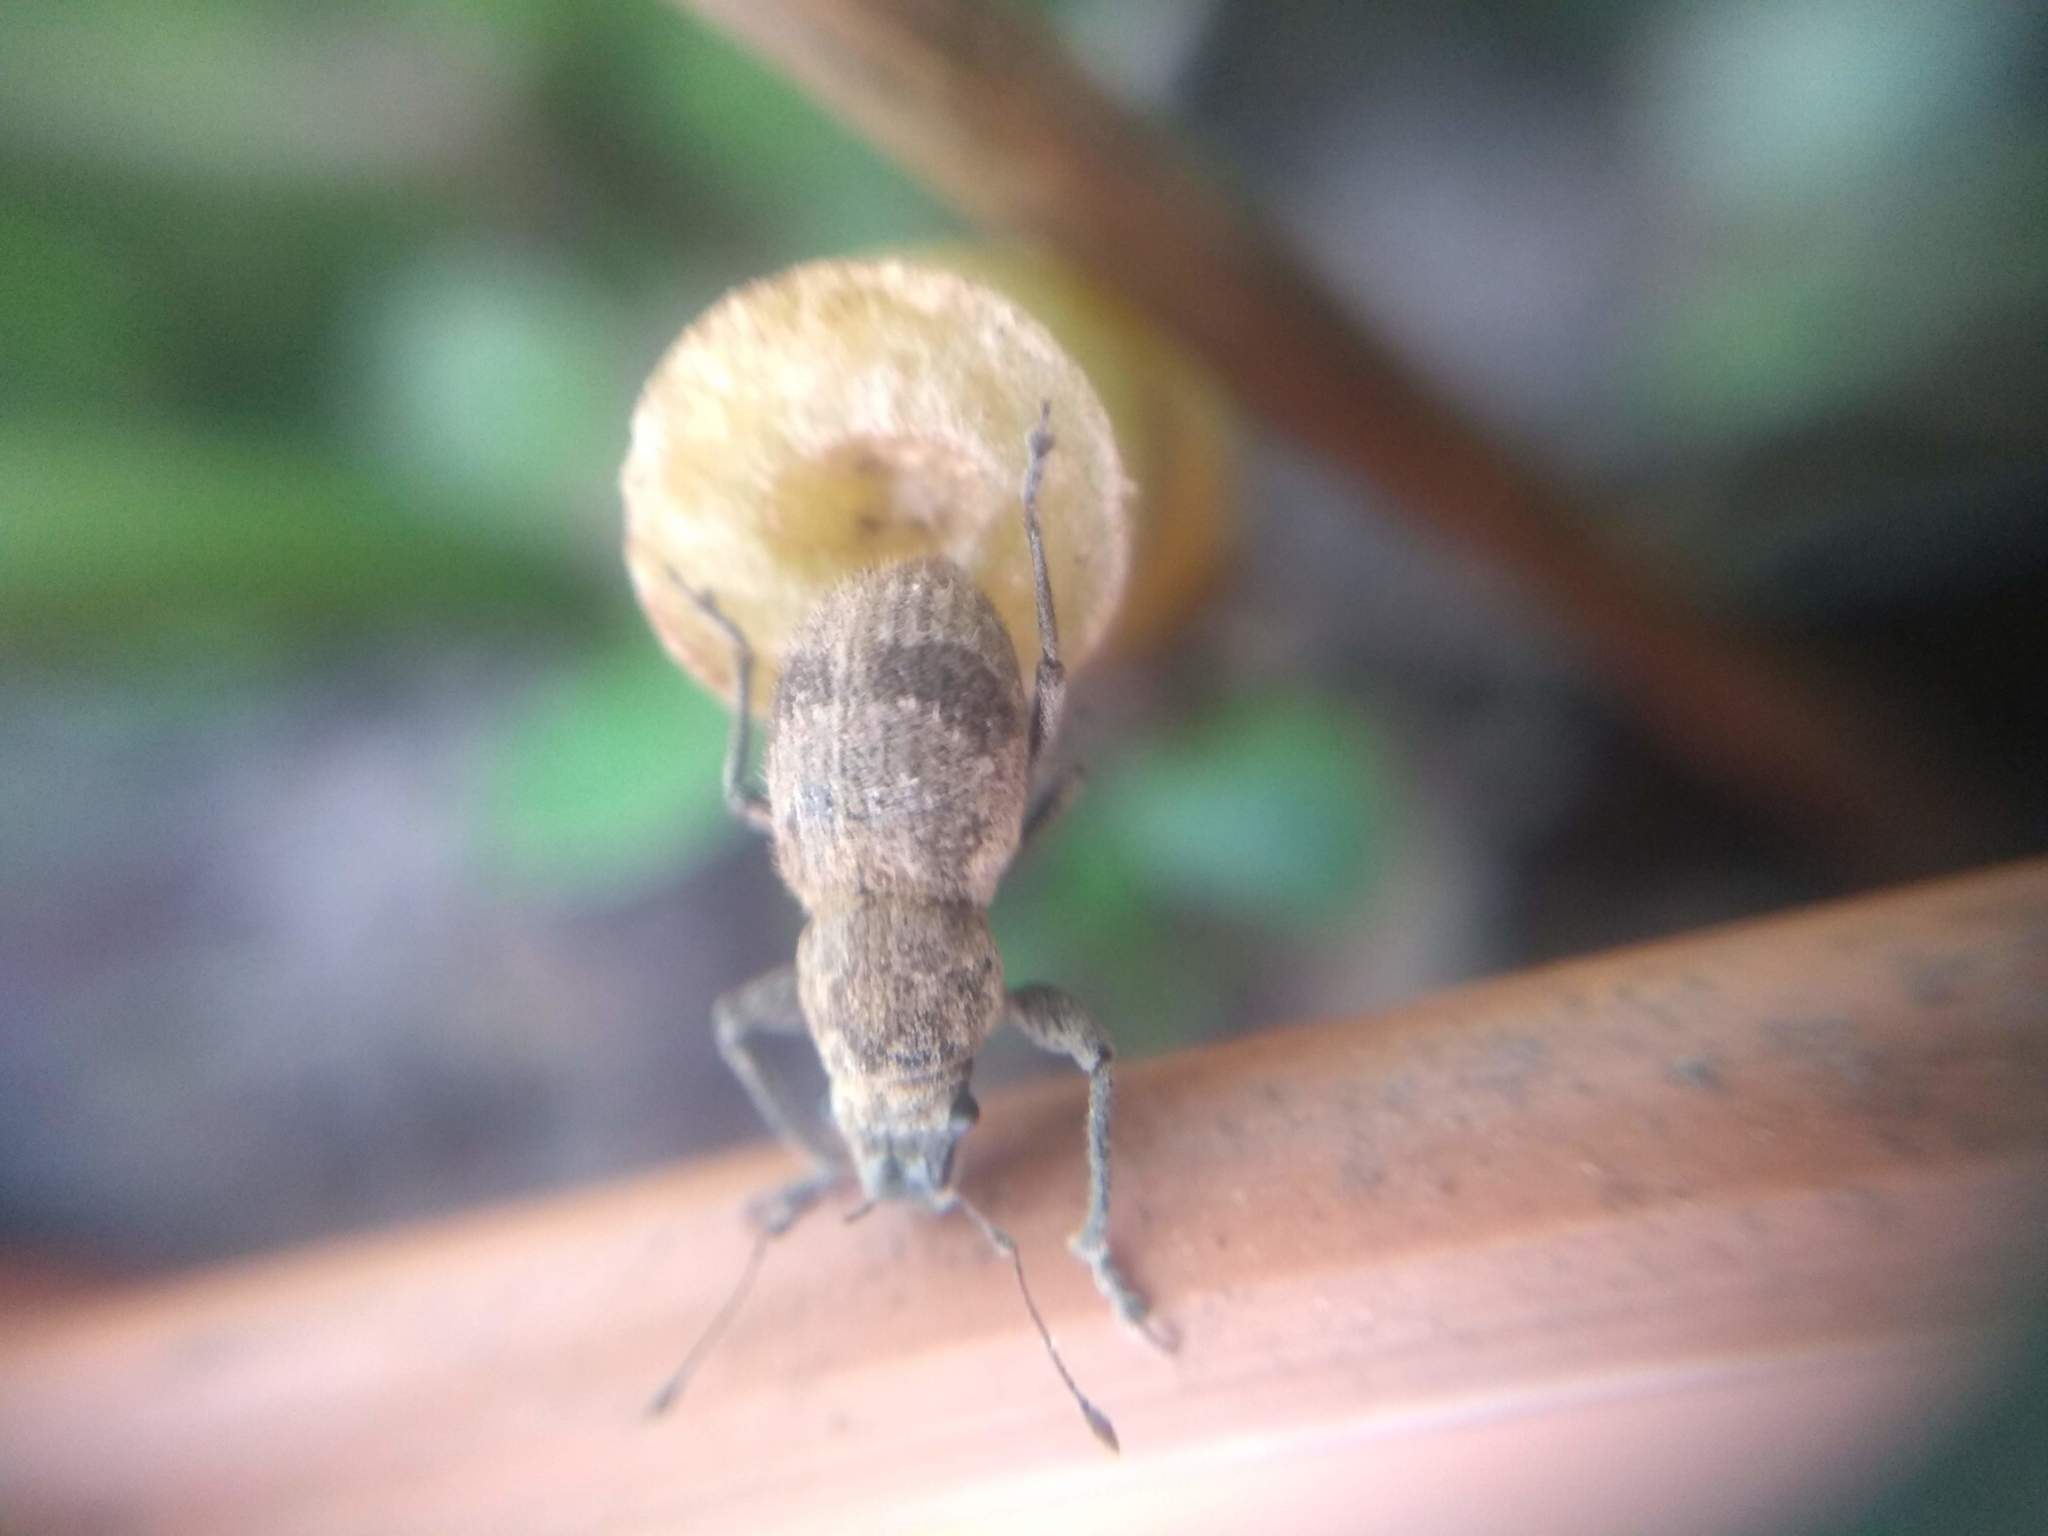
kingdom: Animalia
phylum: Arthropoda
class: Insecta
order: Coleoptera
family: Curculionidae
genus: Pantomorus
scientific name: Pantomorus
